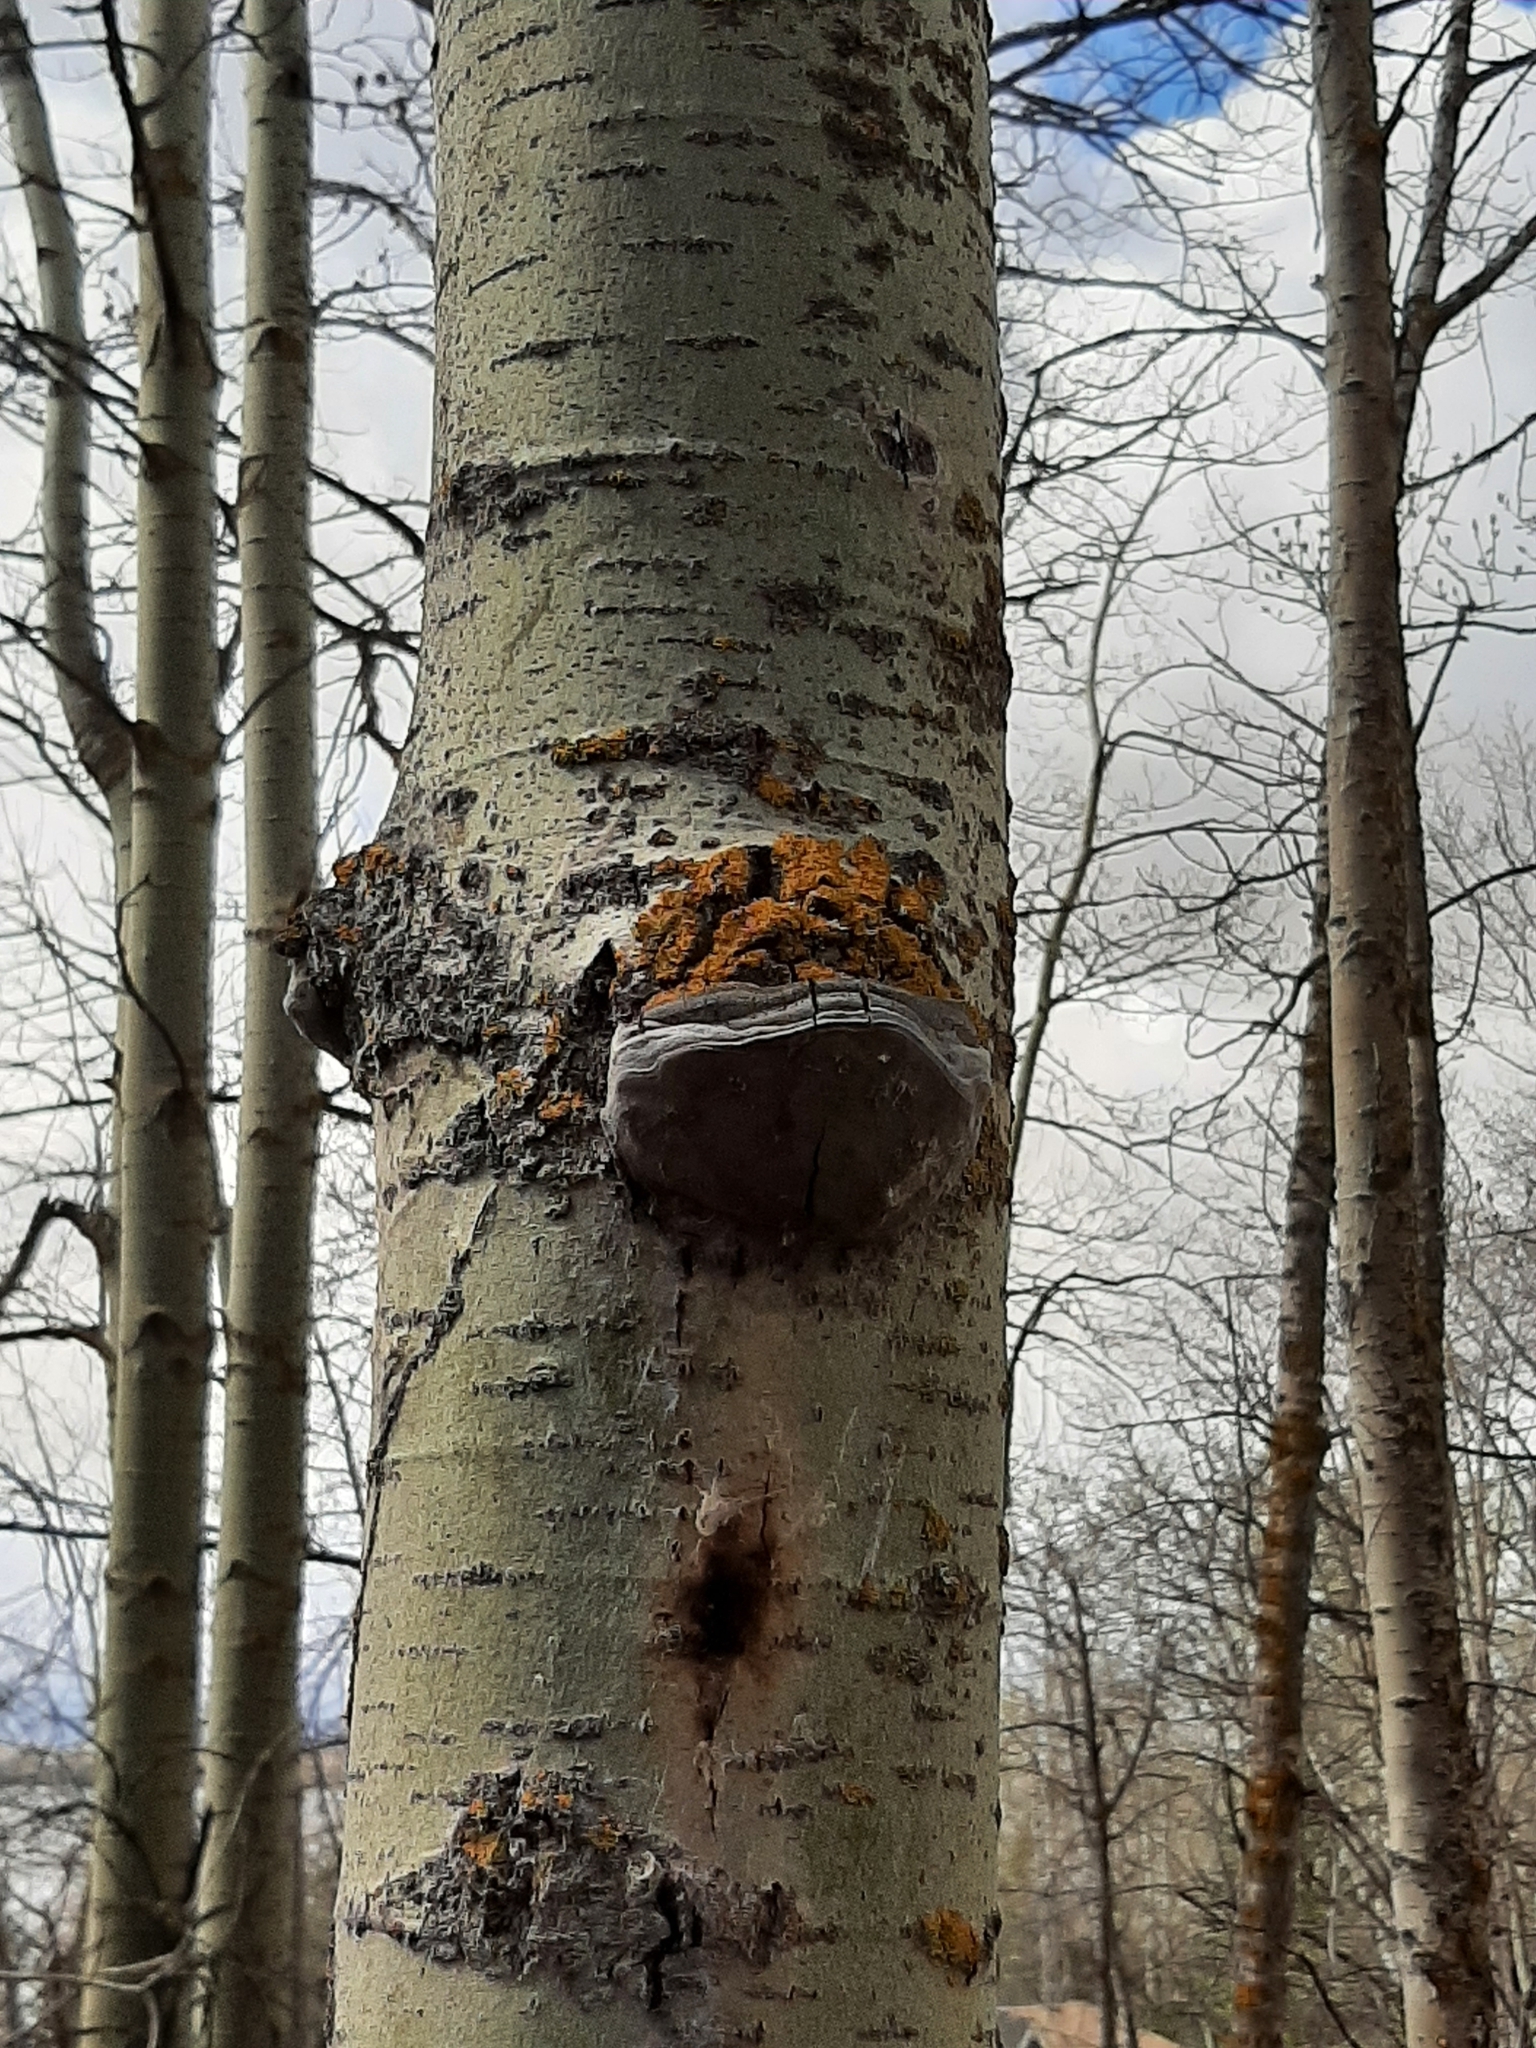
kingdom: Fungi
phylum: Basidiomycota
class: Agaricomycetes
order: Hymenochaetales
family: Hymenochaetaceae
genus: Phellinus
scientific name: Phellinus tremulae
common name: Aspen bracket
